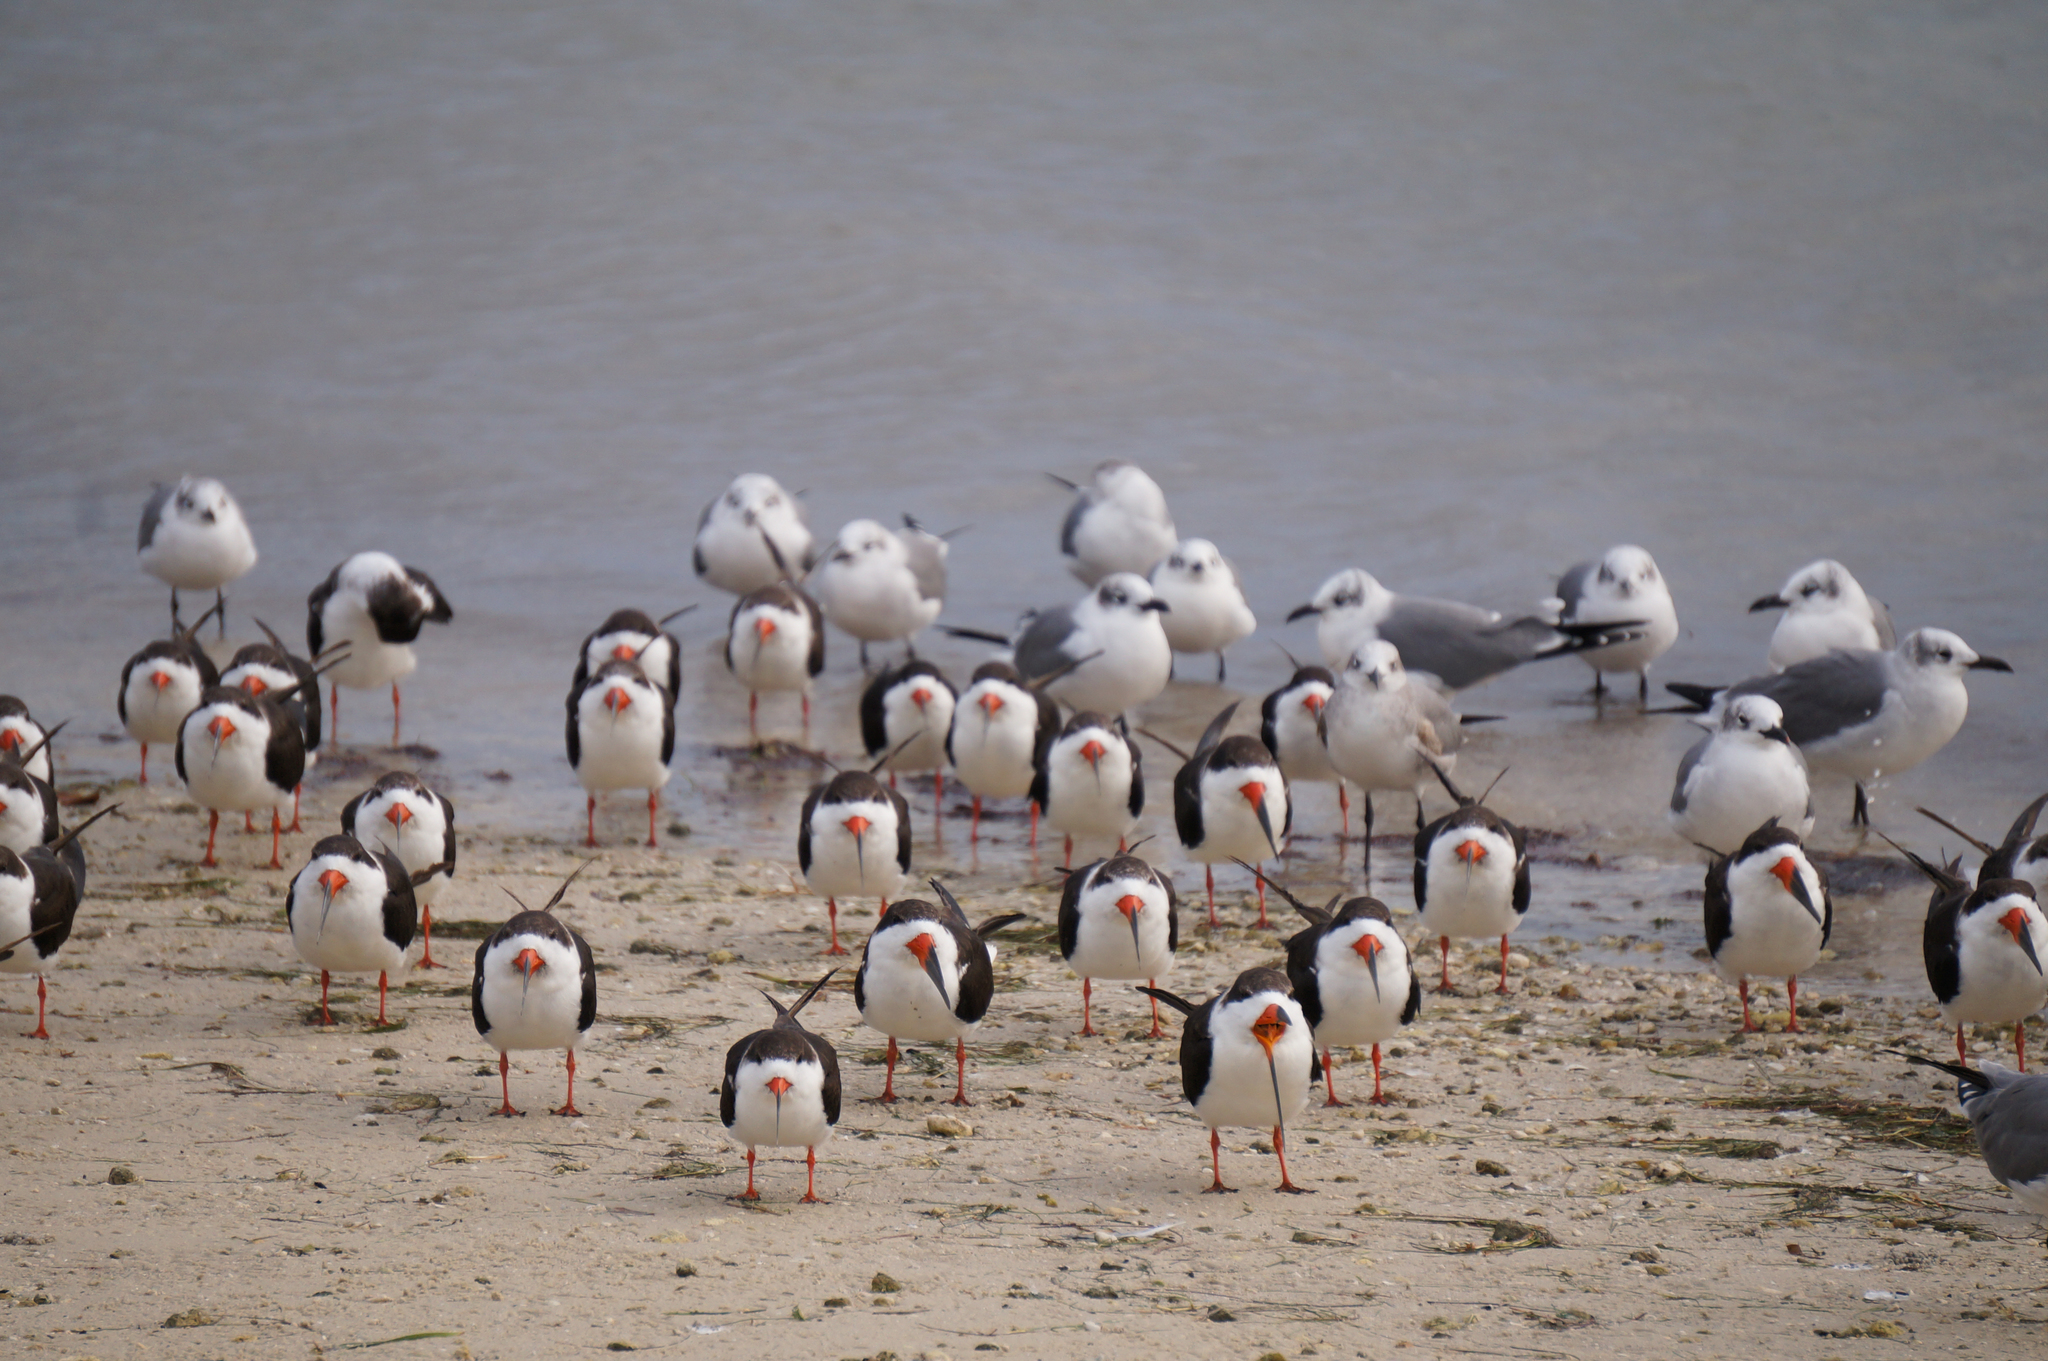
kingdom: Animalia
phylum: Chordata
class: Aves
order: Charadriiformes
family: Laridae
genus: Rynchops
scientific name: Rynchops niger
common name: Black skimmer
